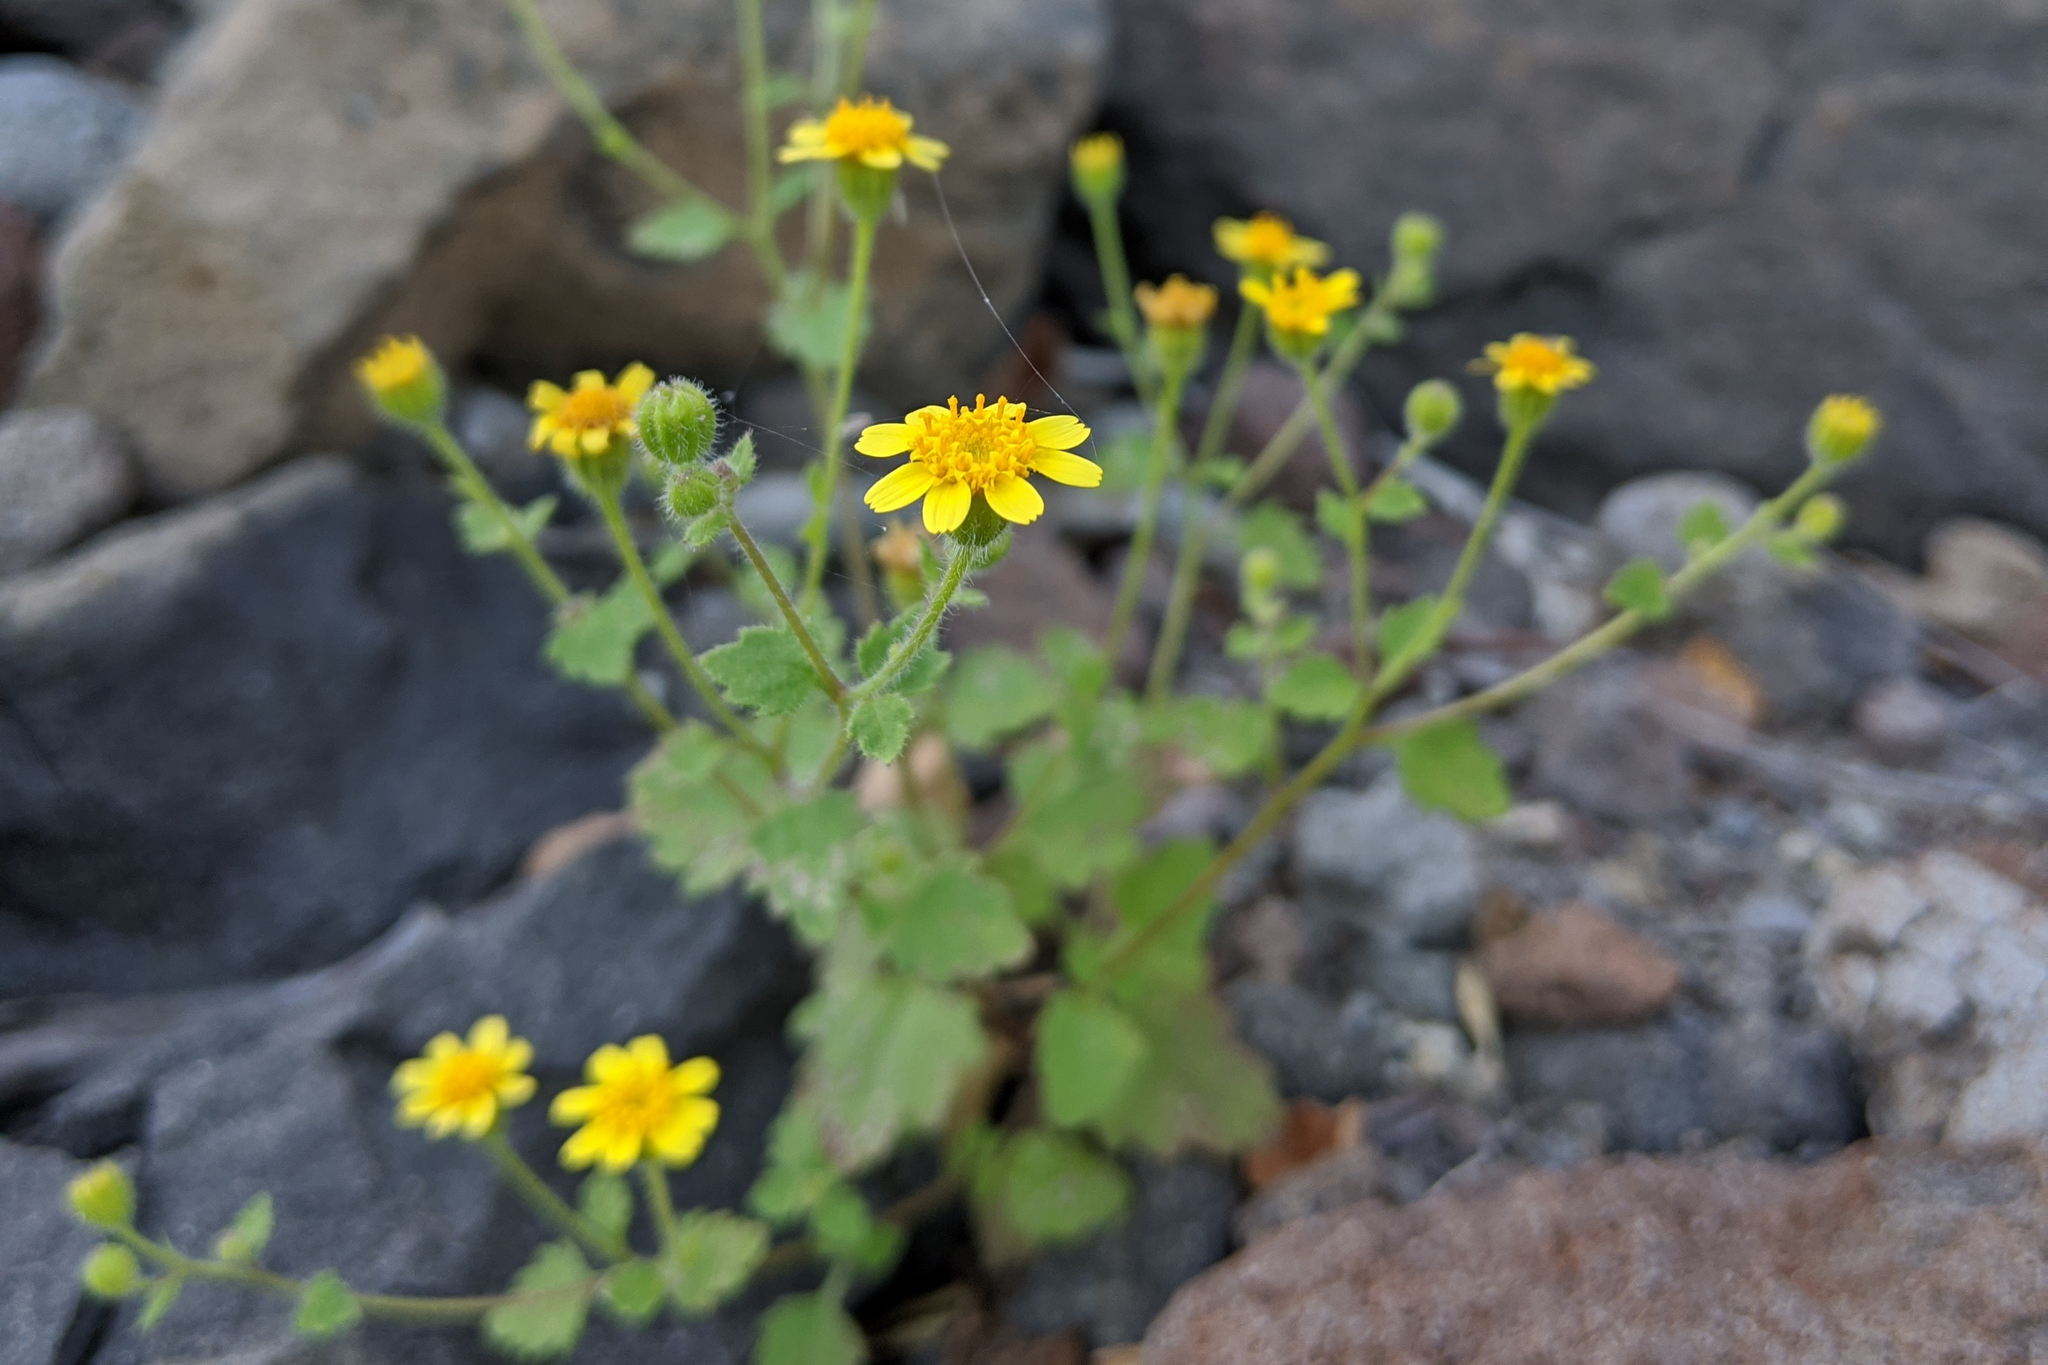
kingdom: Plantae
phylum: Tracheophyta
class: Magnoliopsida
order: Asterales
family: Asteraceae
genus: Perityle
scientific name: Perityle californica
